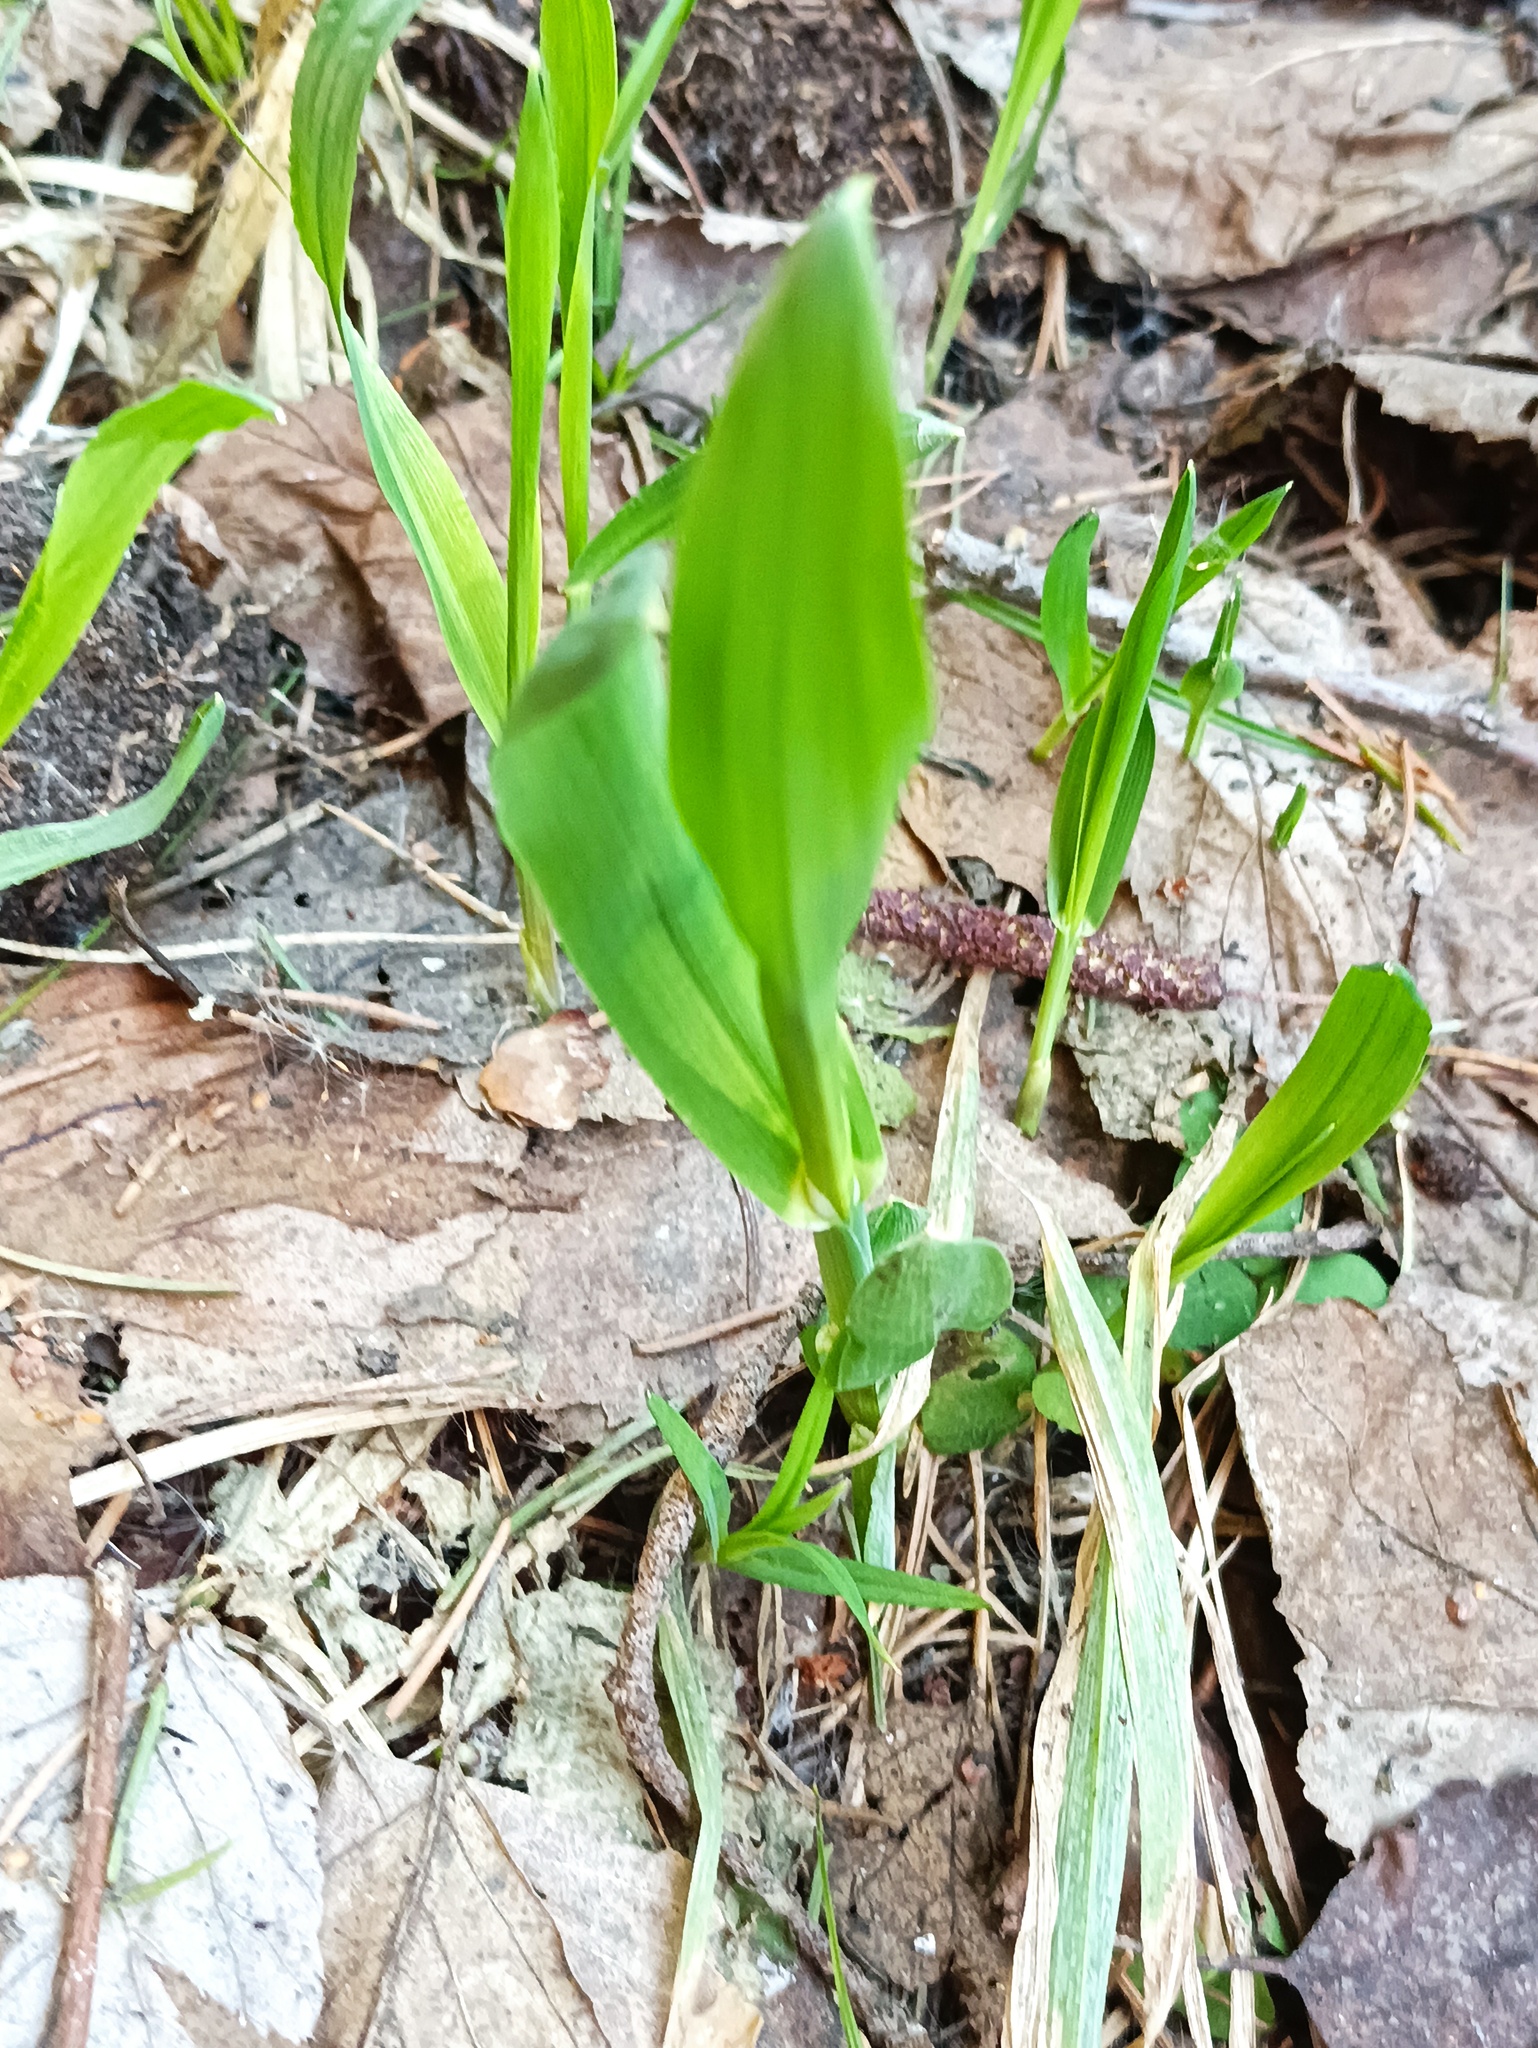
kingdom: Plantae
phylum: Tracheophyta
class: Liliopsida
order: Poales
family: Poaceae
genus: Milium
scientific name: Milium effusum
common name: Wood millet
